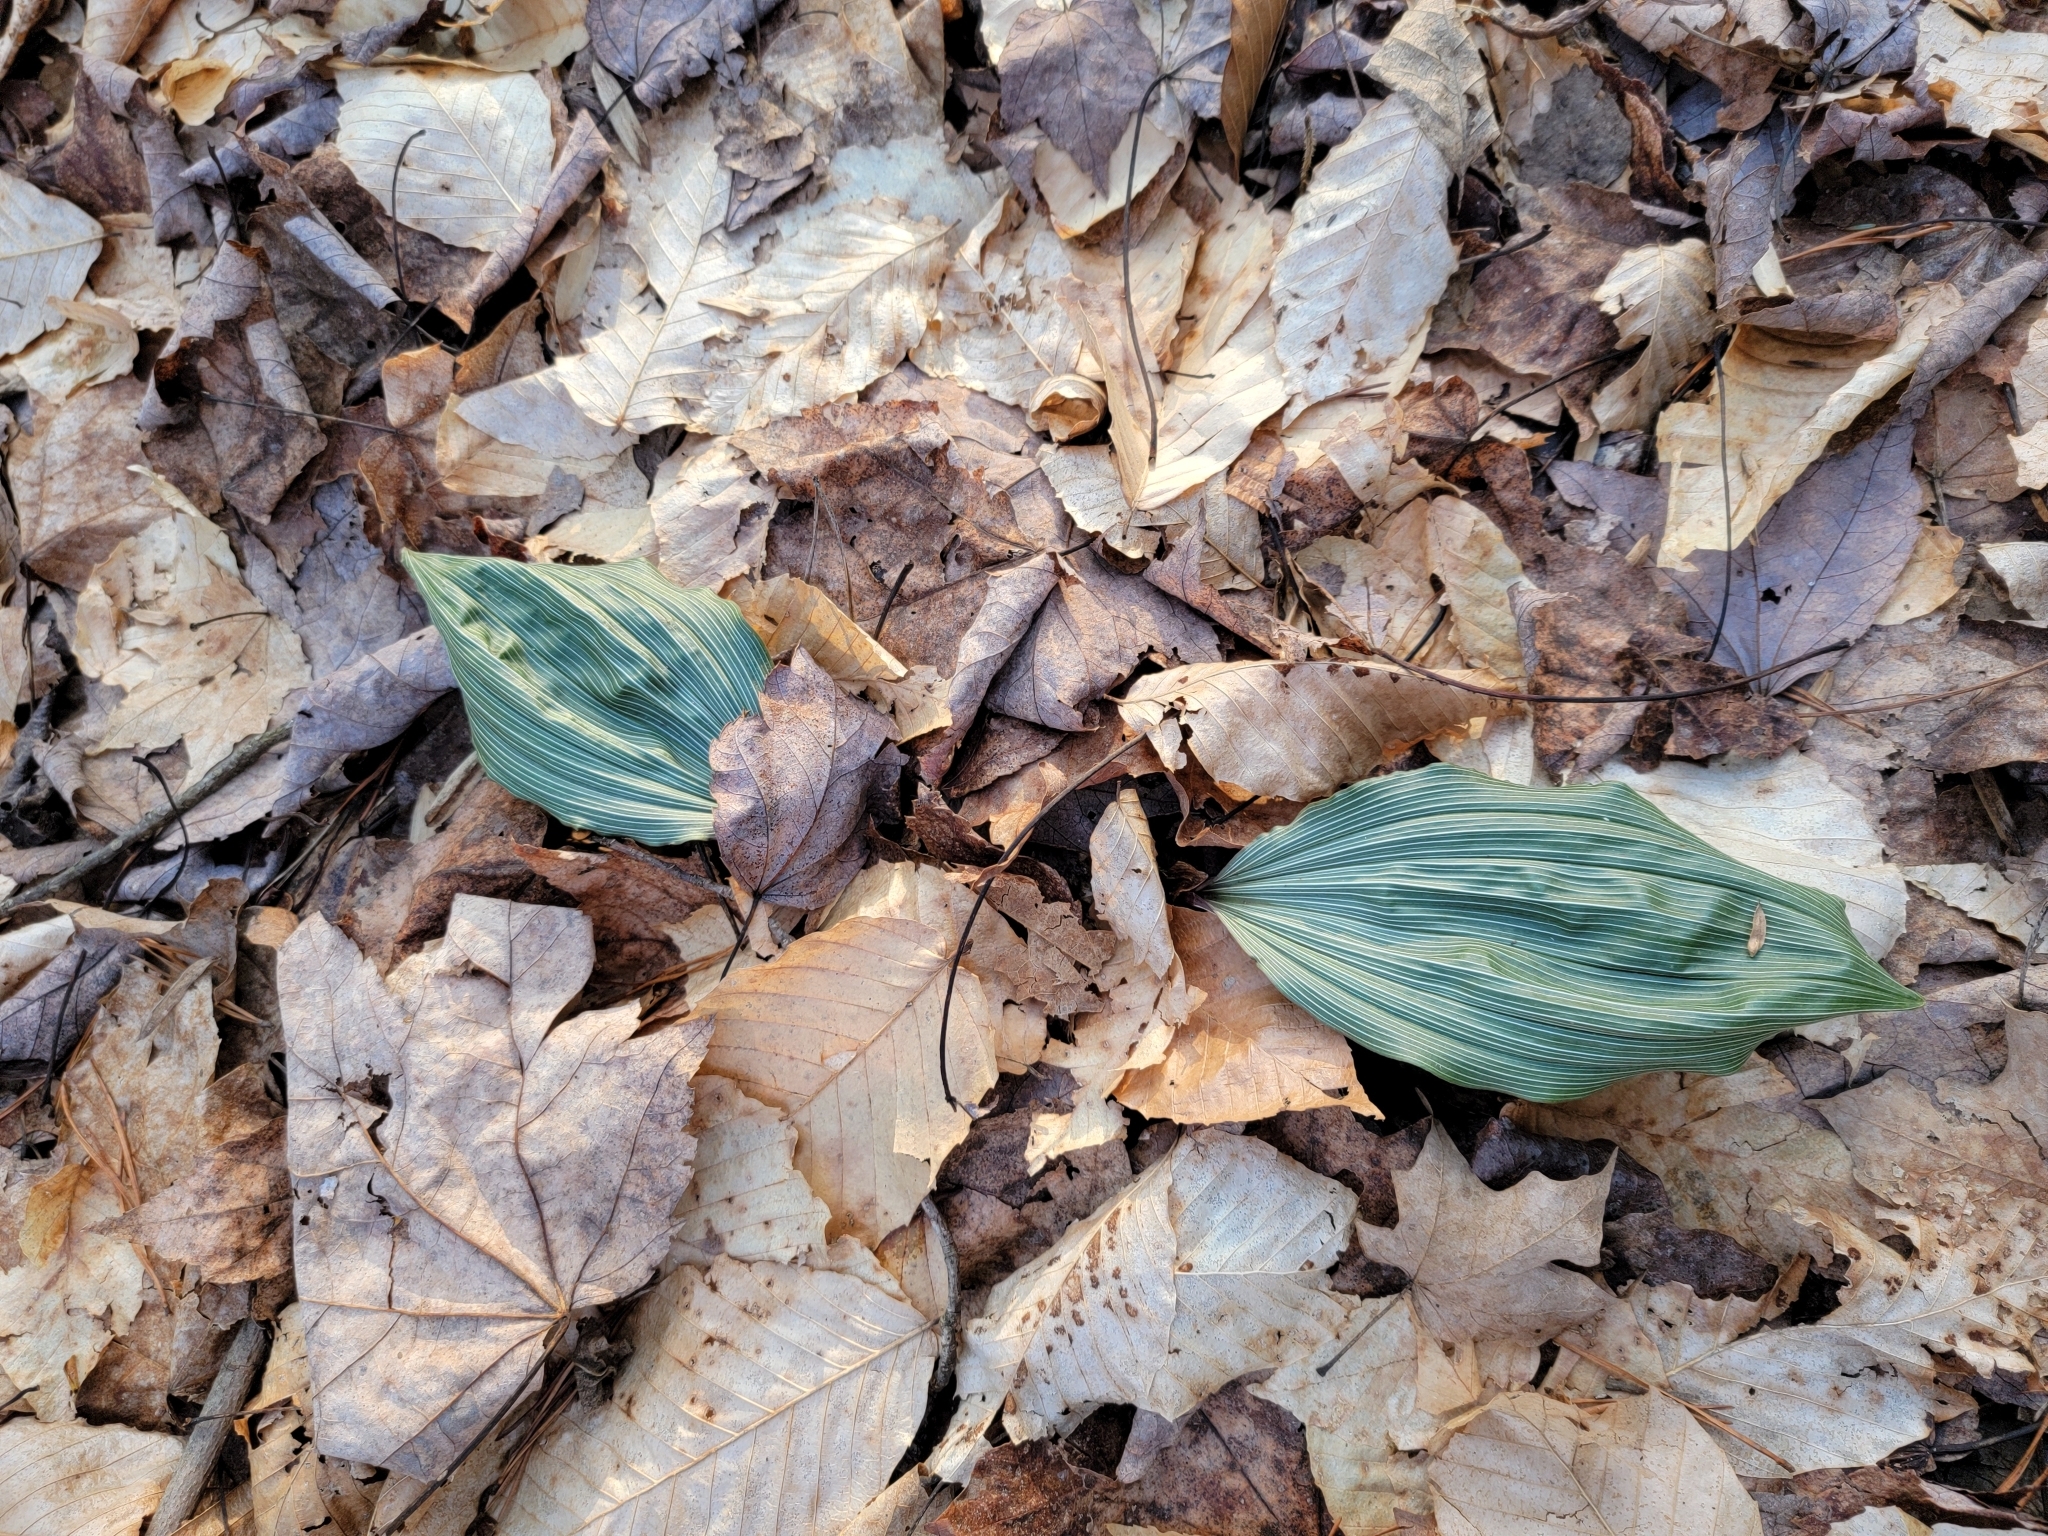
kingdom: Plantae
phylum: Tracheophyta
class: Liliopsida
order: Asparagales
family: Orchidaceae
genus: Aplectrum
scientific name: Aplectrum hyemale
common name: Adam-and-eve
